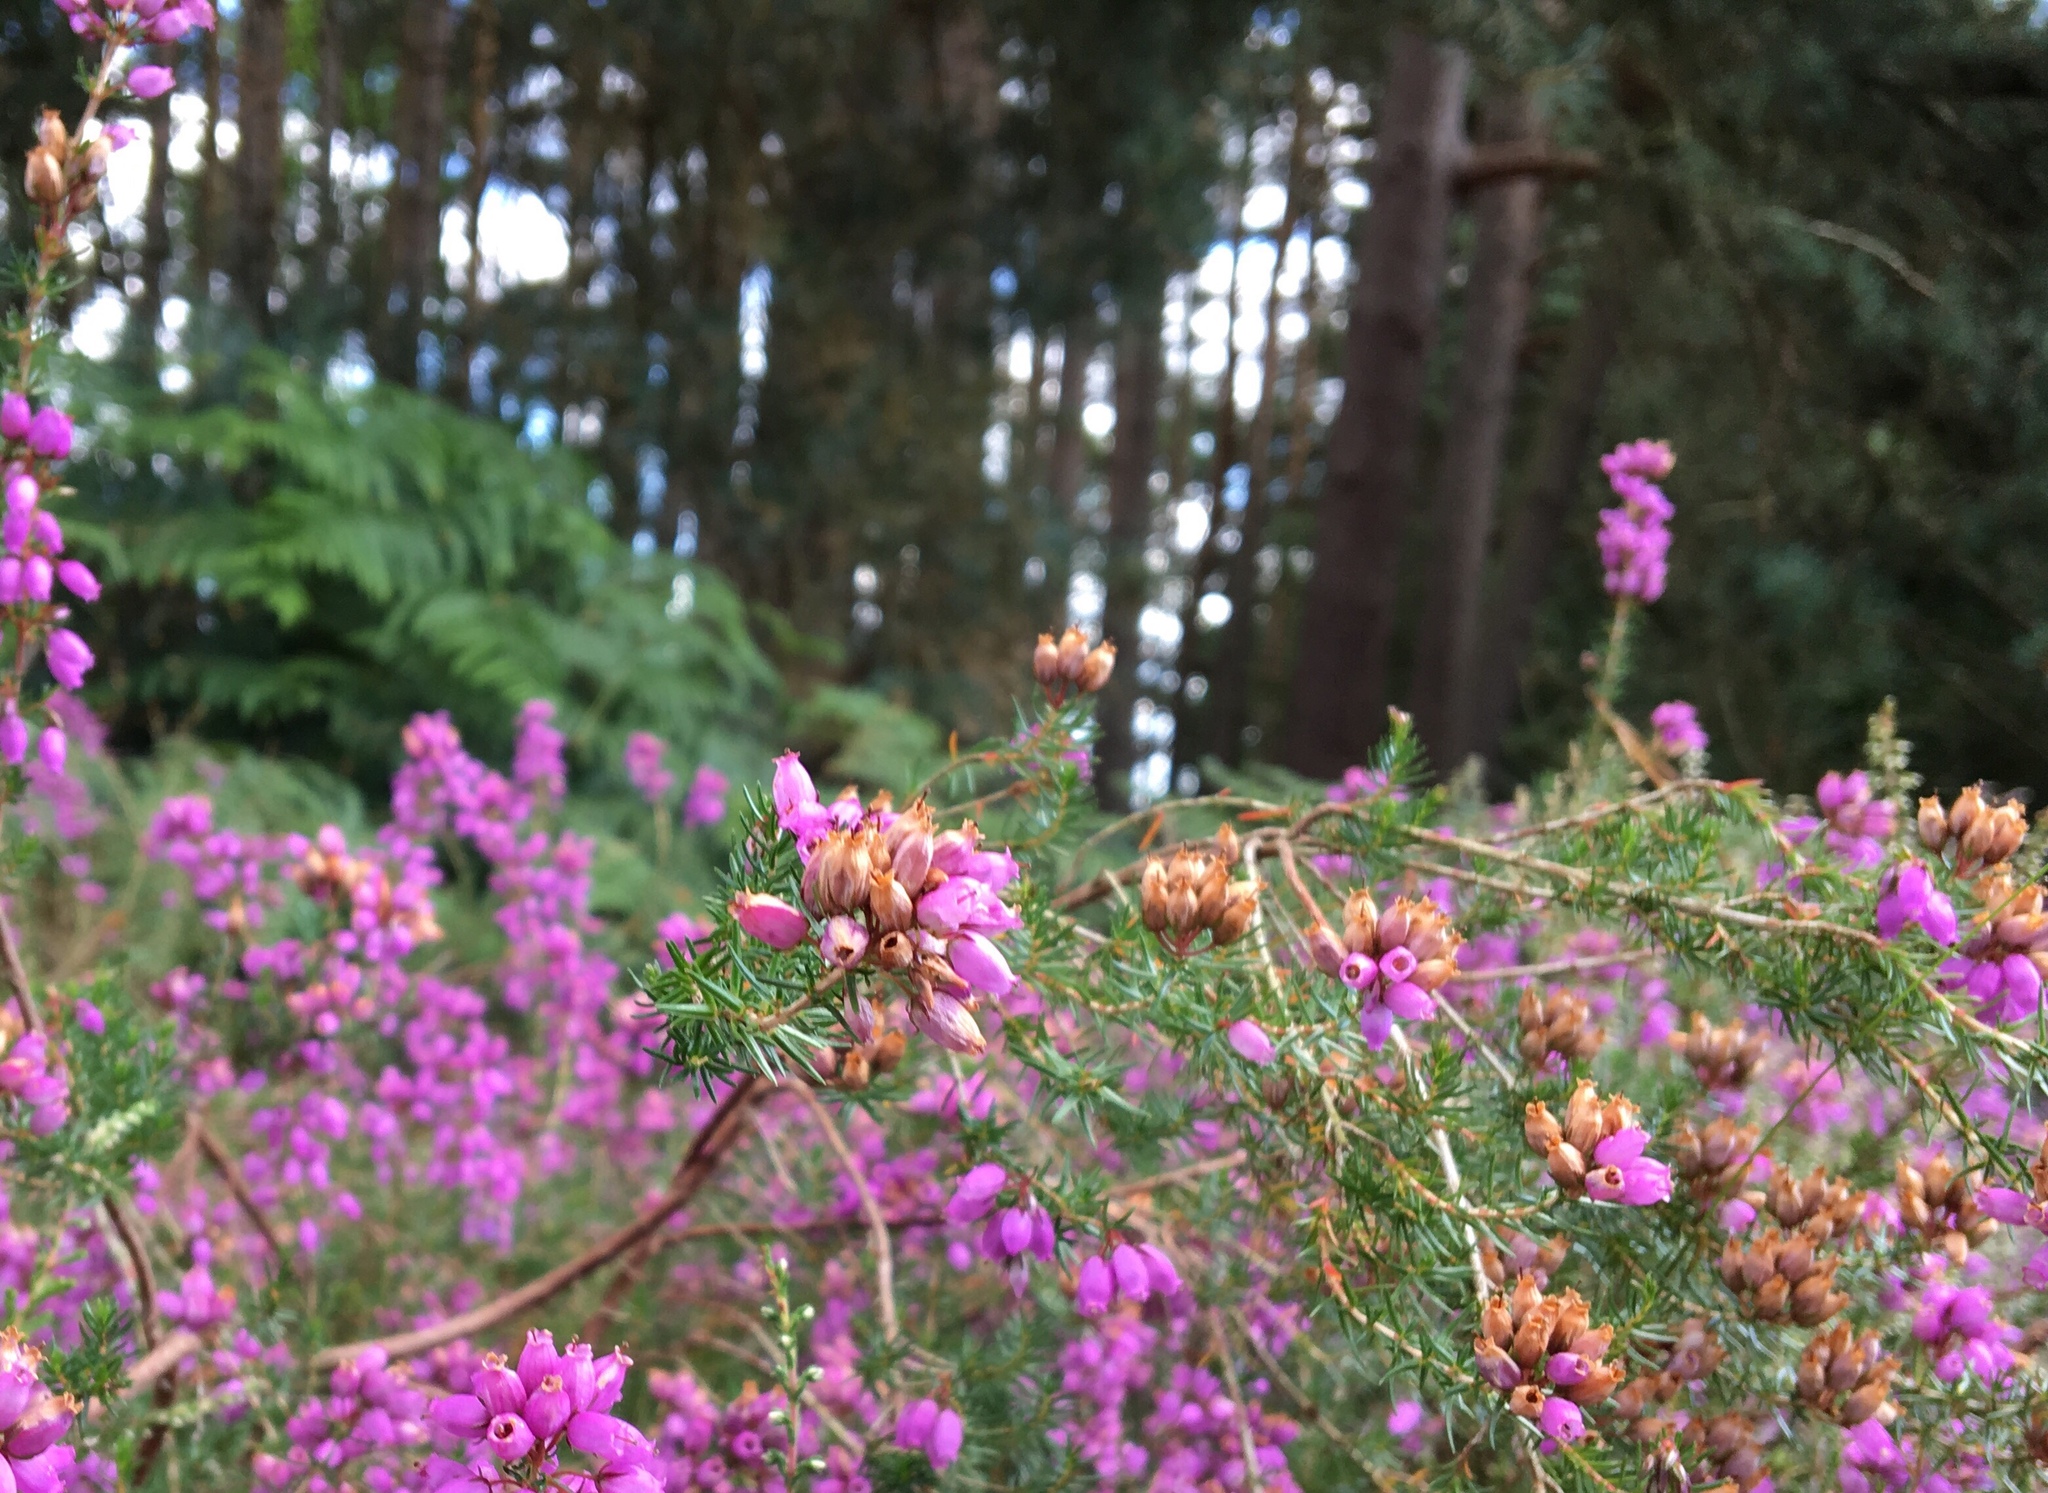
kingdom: Plantae
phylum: Tracheophyta
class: Magnoliopsida
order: Ericales
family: Ericaceae
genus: Erica
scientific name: Erica cinerea
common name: Bell heather
